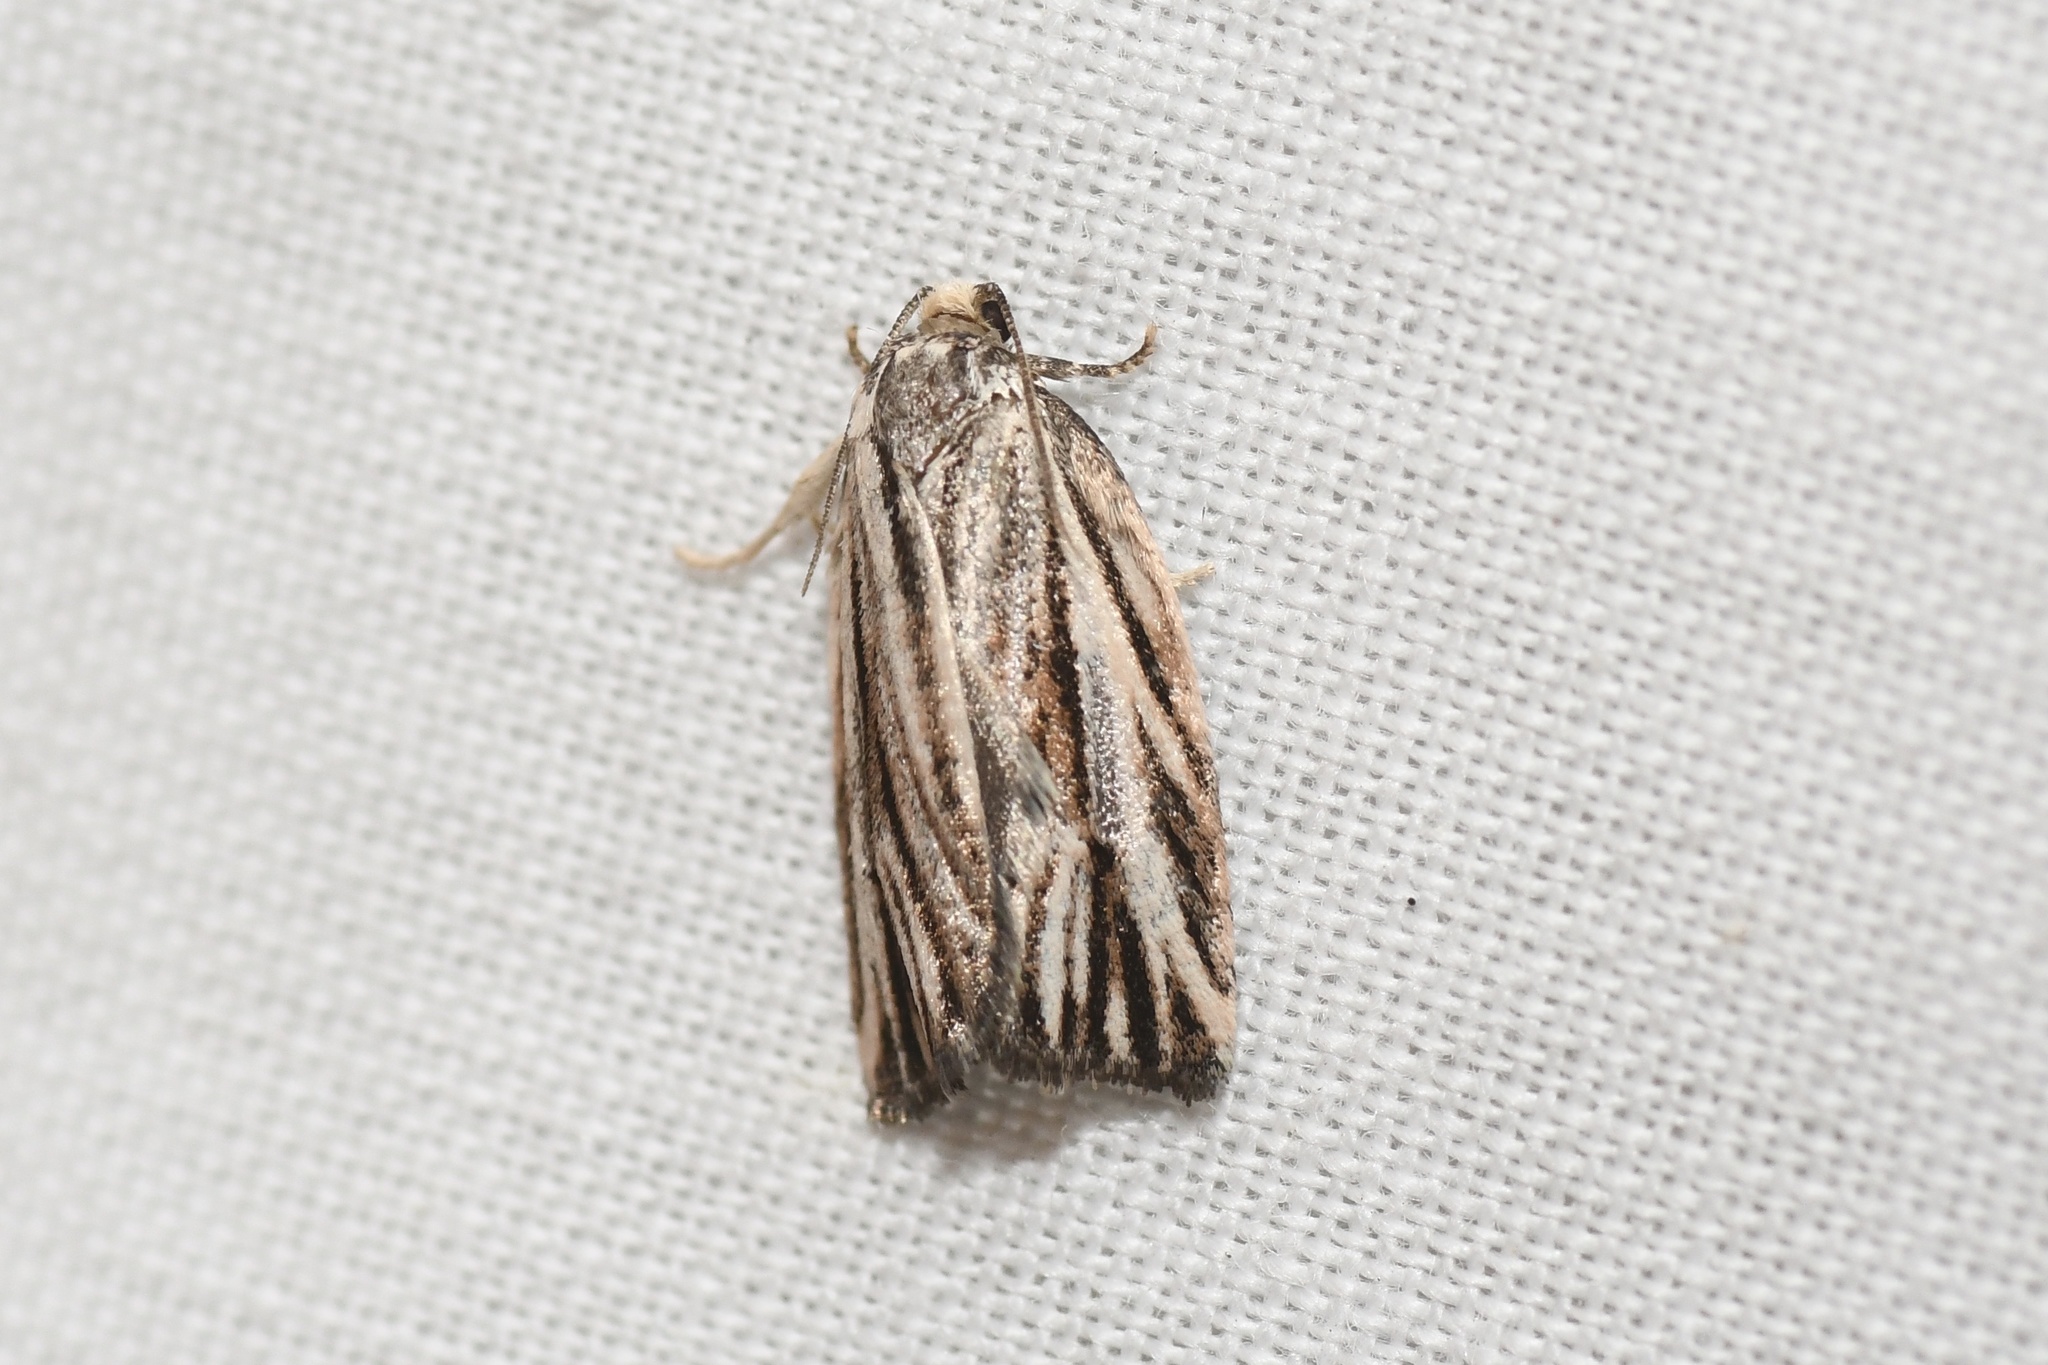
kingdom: Animalia
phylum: Arthropoda
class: Insecta
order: Lepidoptera
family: Tortricidae
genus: Archips
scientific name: Archips strianus
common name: Striated tortrix moth
